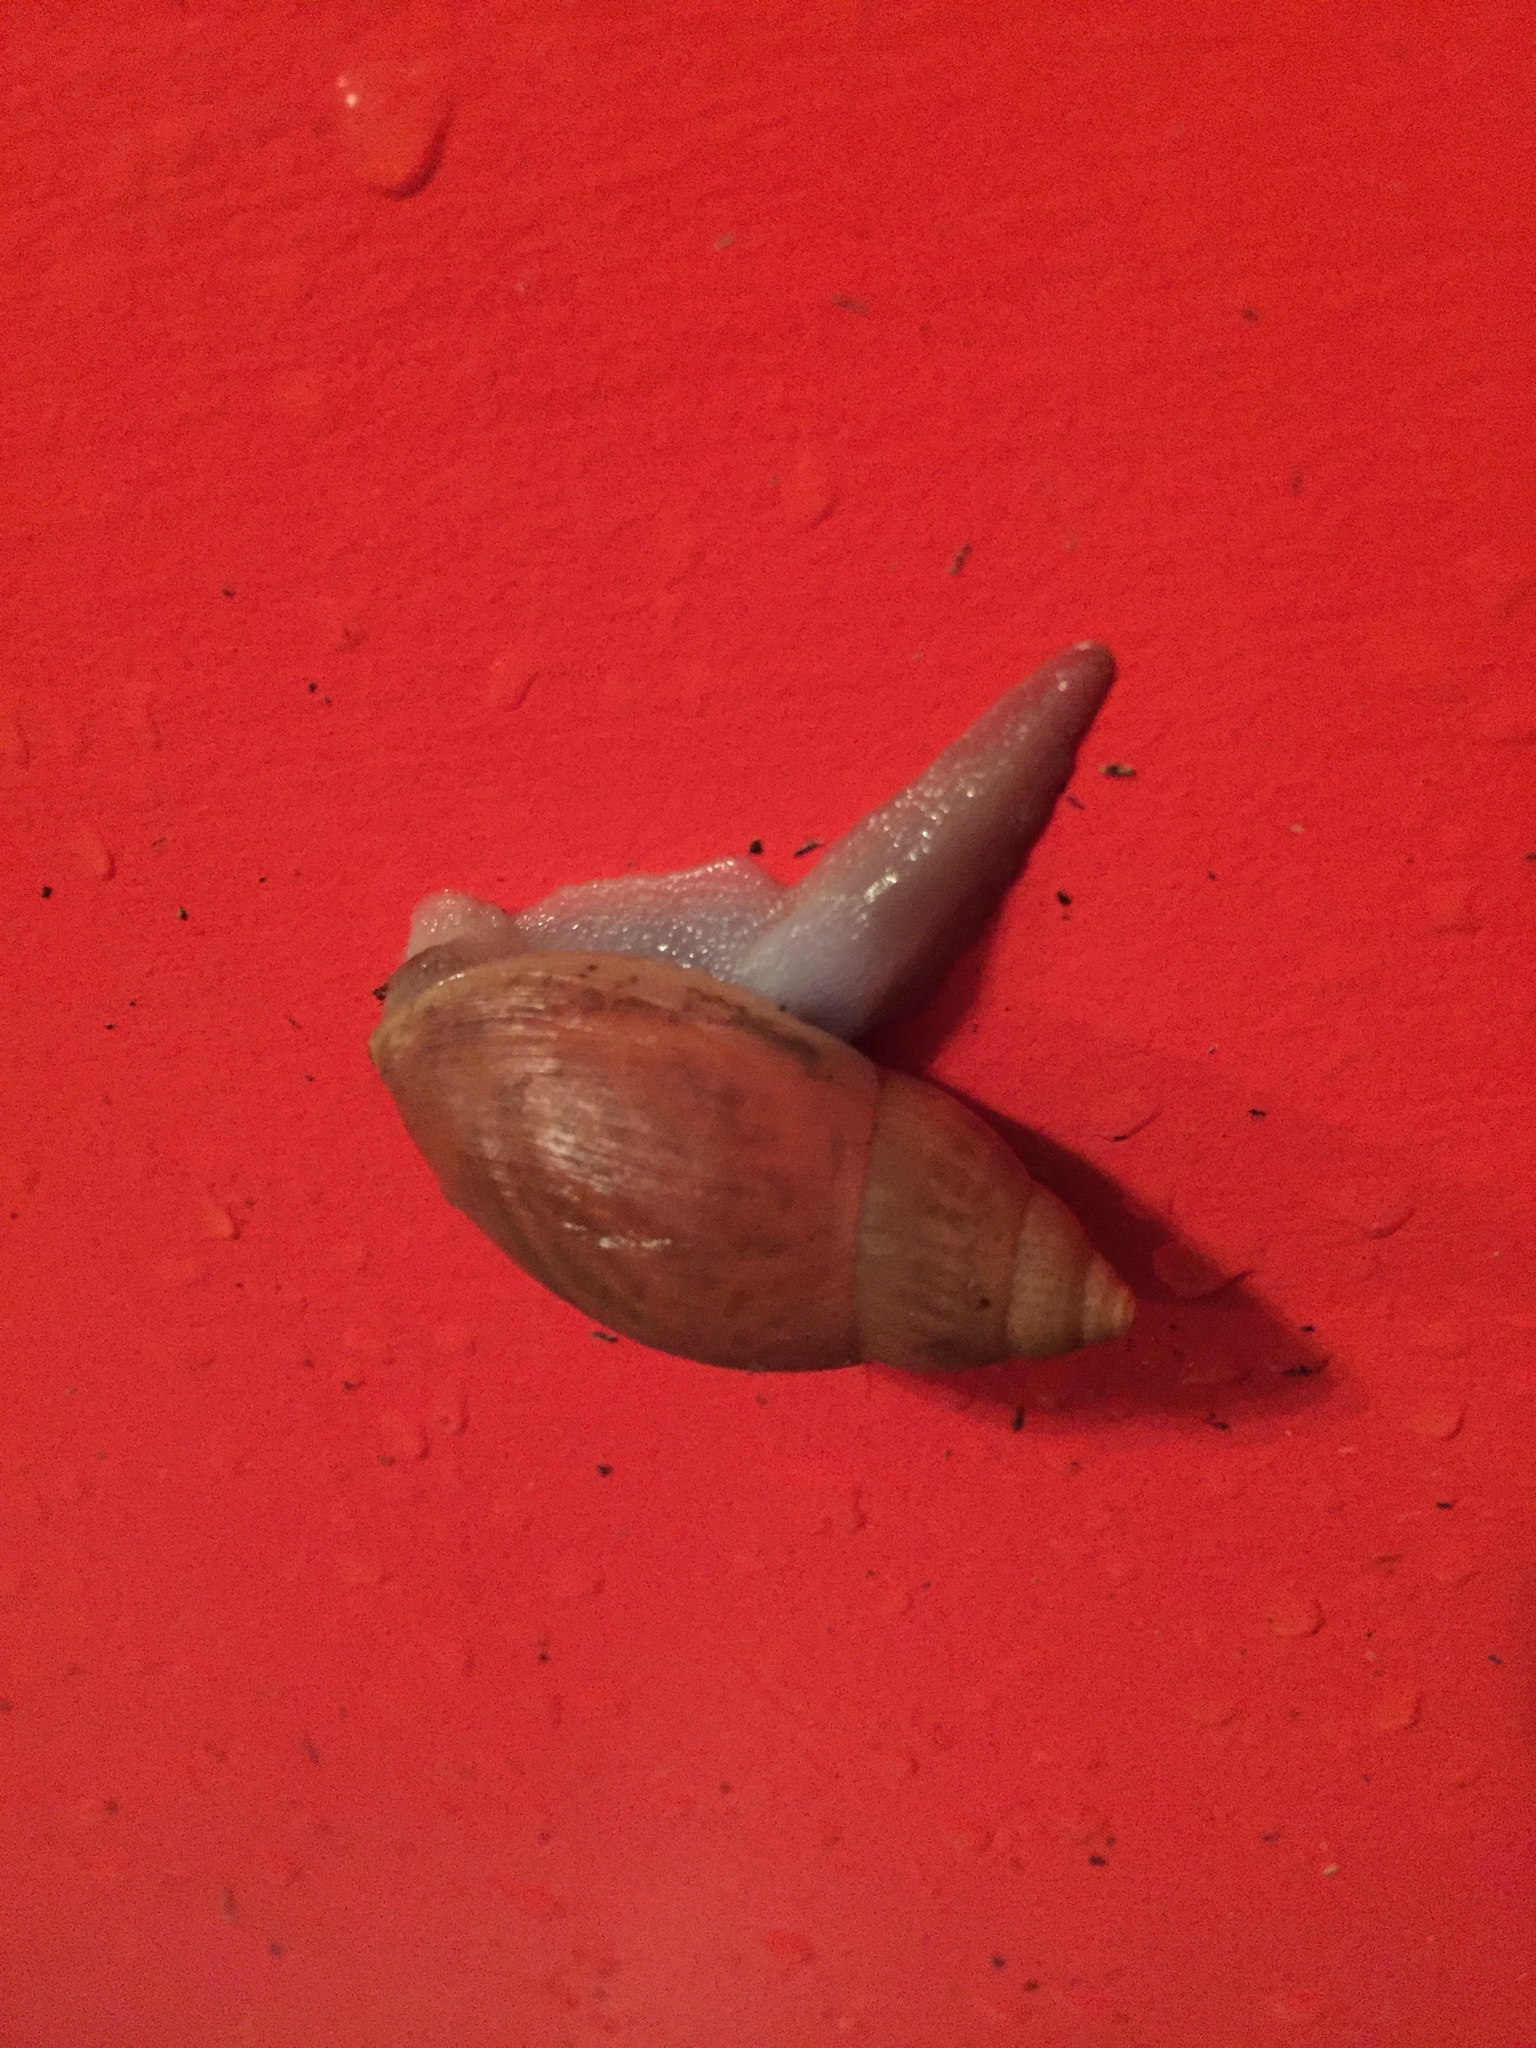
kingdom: Animalia
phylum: Mollusca
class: Gastropoda
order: Stylommatophora
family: Spiraxidae
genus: Euglandina
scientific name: Euglandina rosea
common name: Rosy wolfsnail
